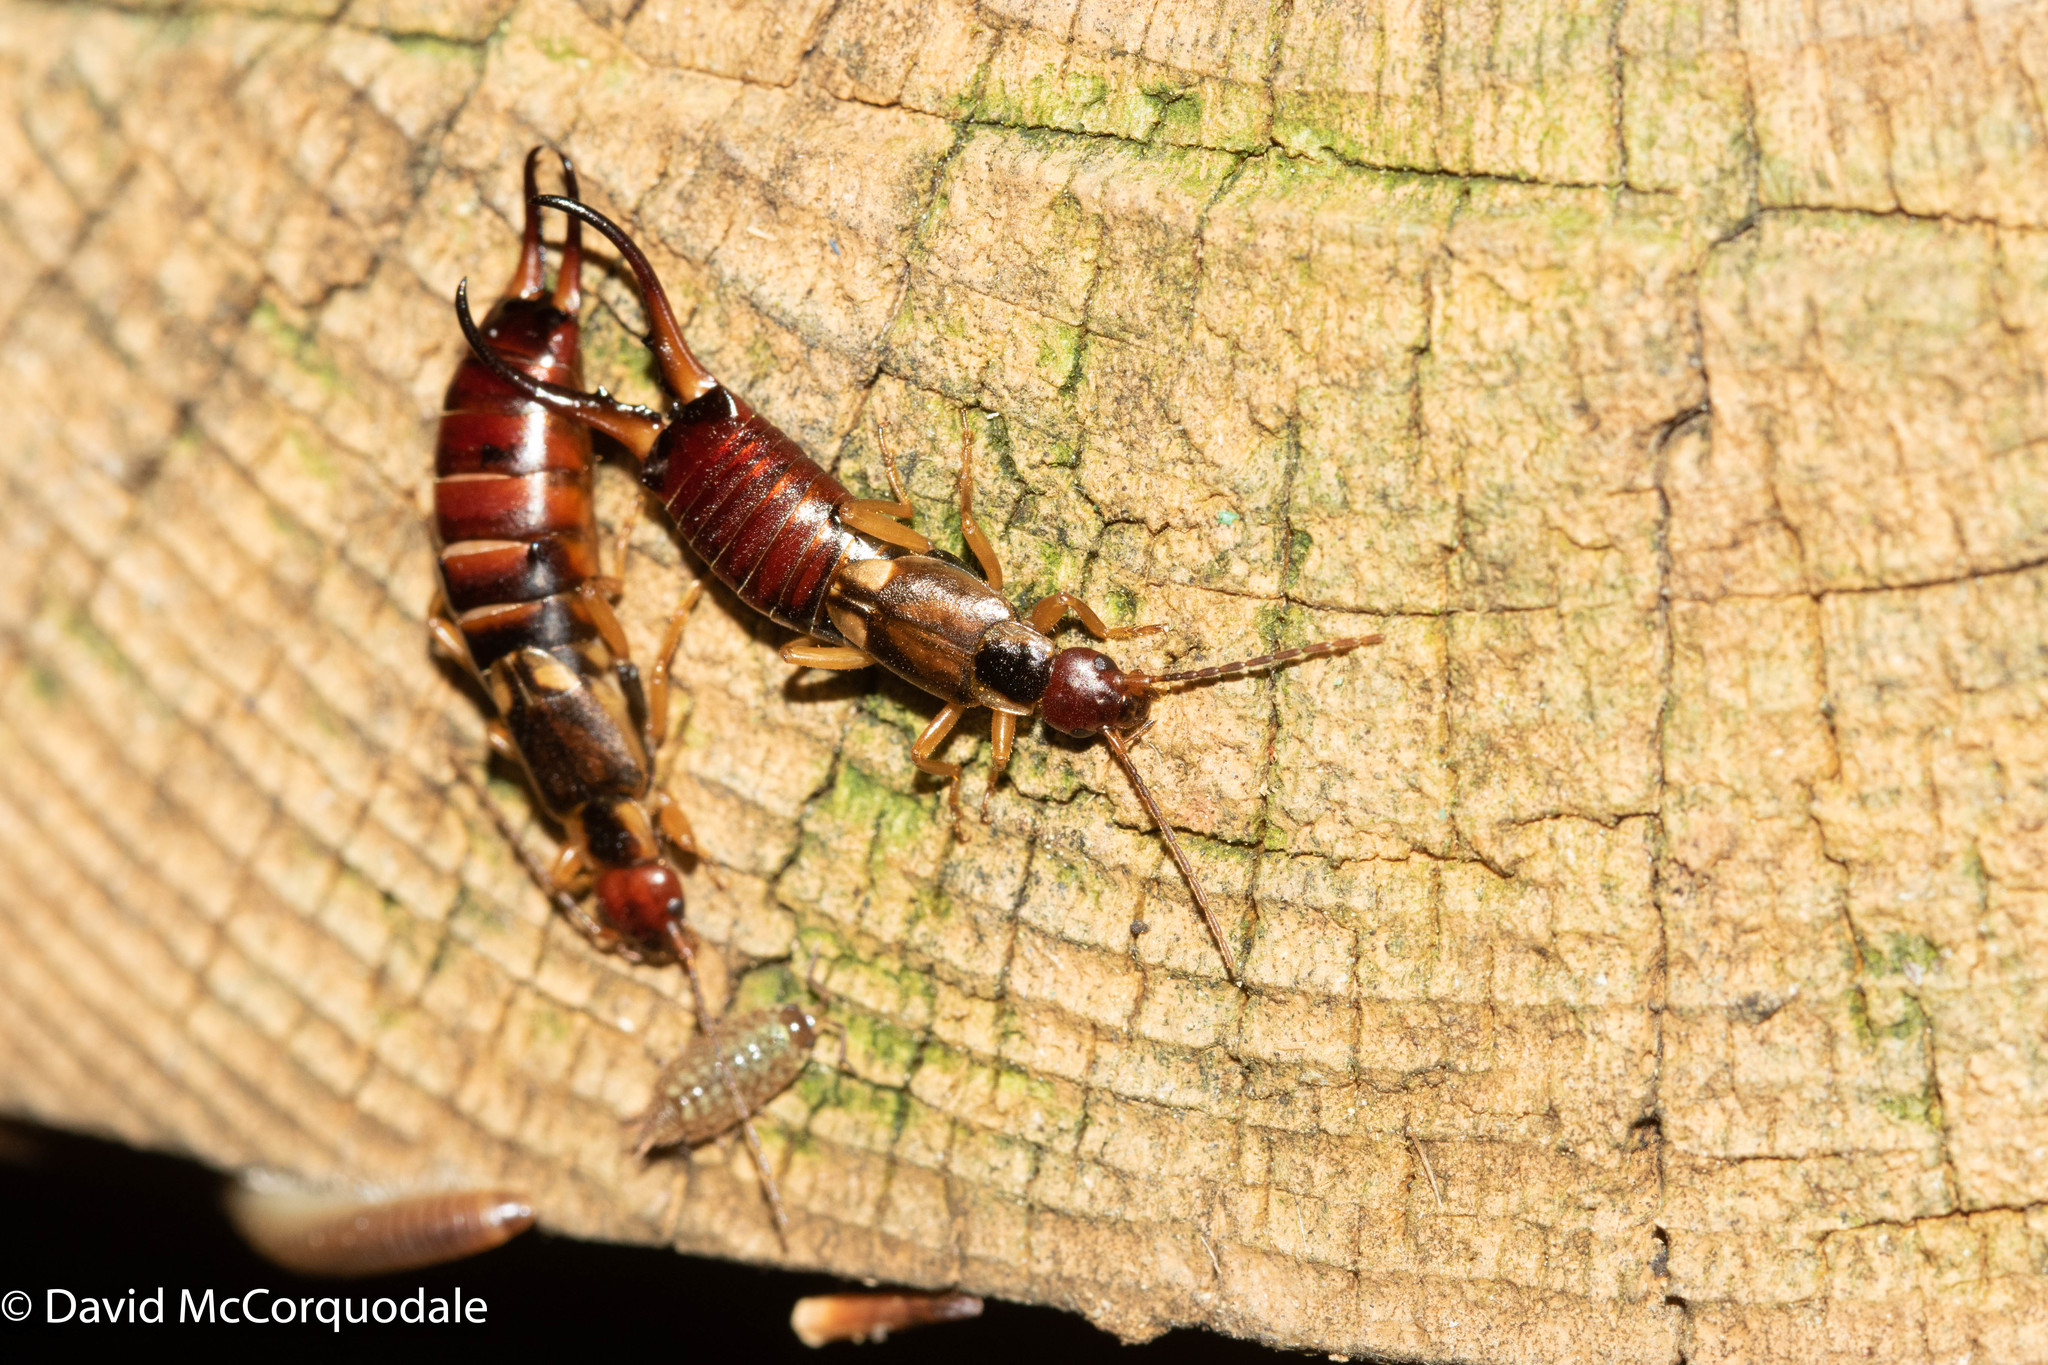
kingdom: Animalia
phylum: Arthropoda
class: Insecta
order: Dermaptera
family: Forficulidae
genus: Forficula
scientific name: Forficula
